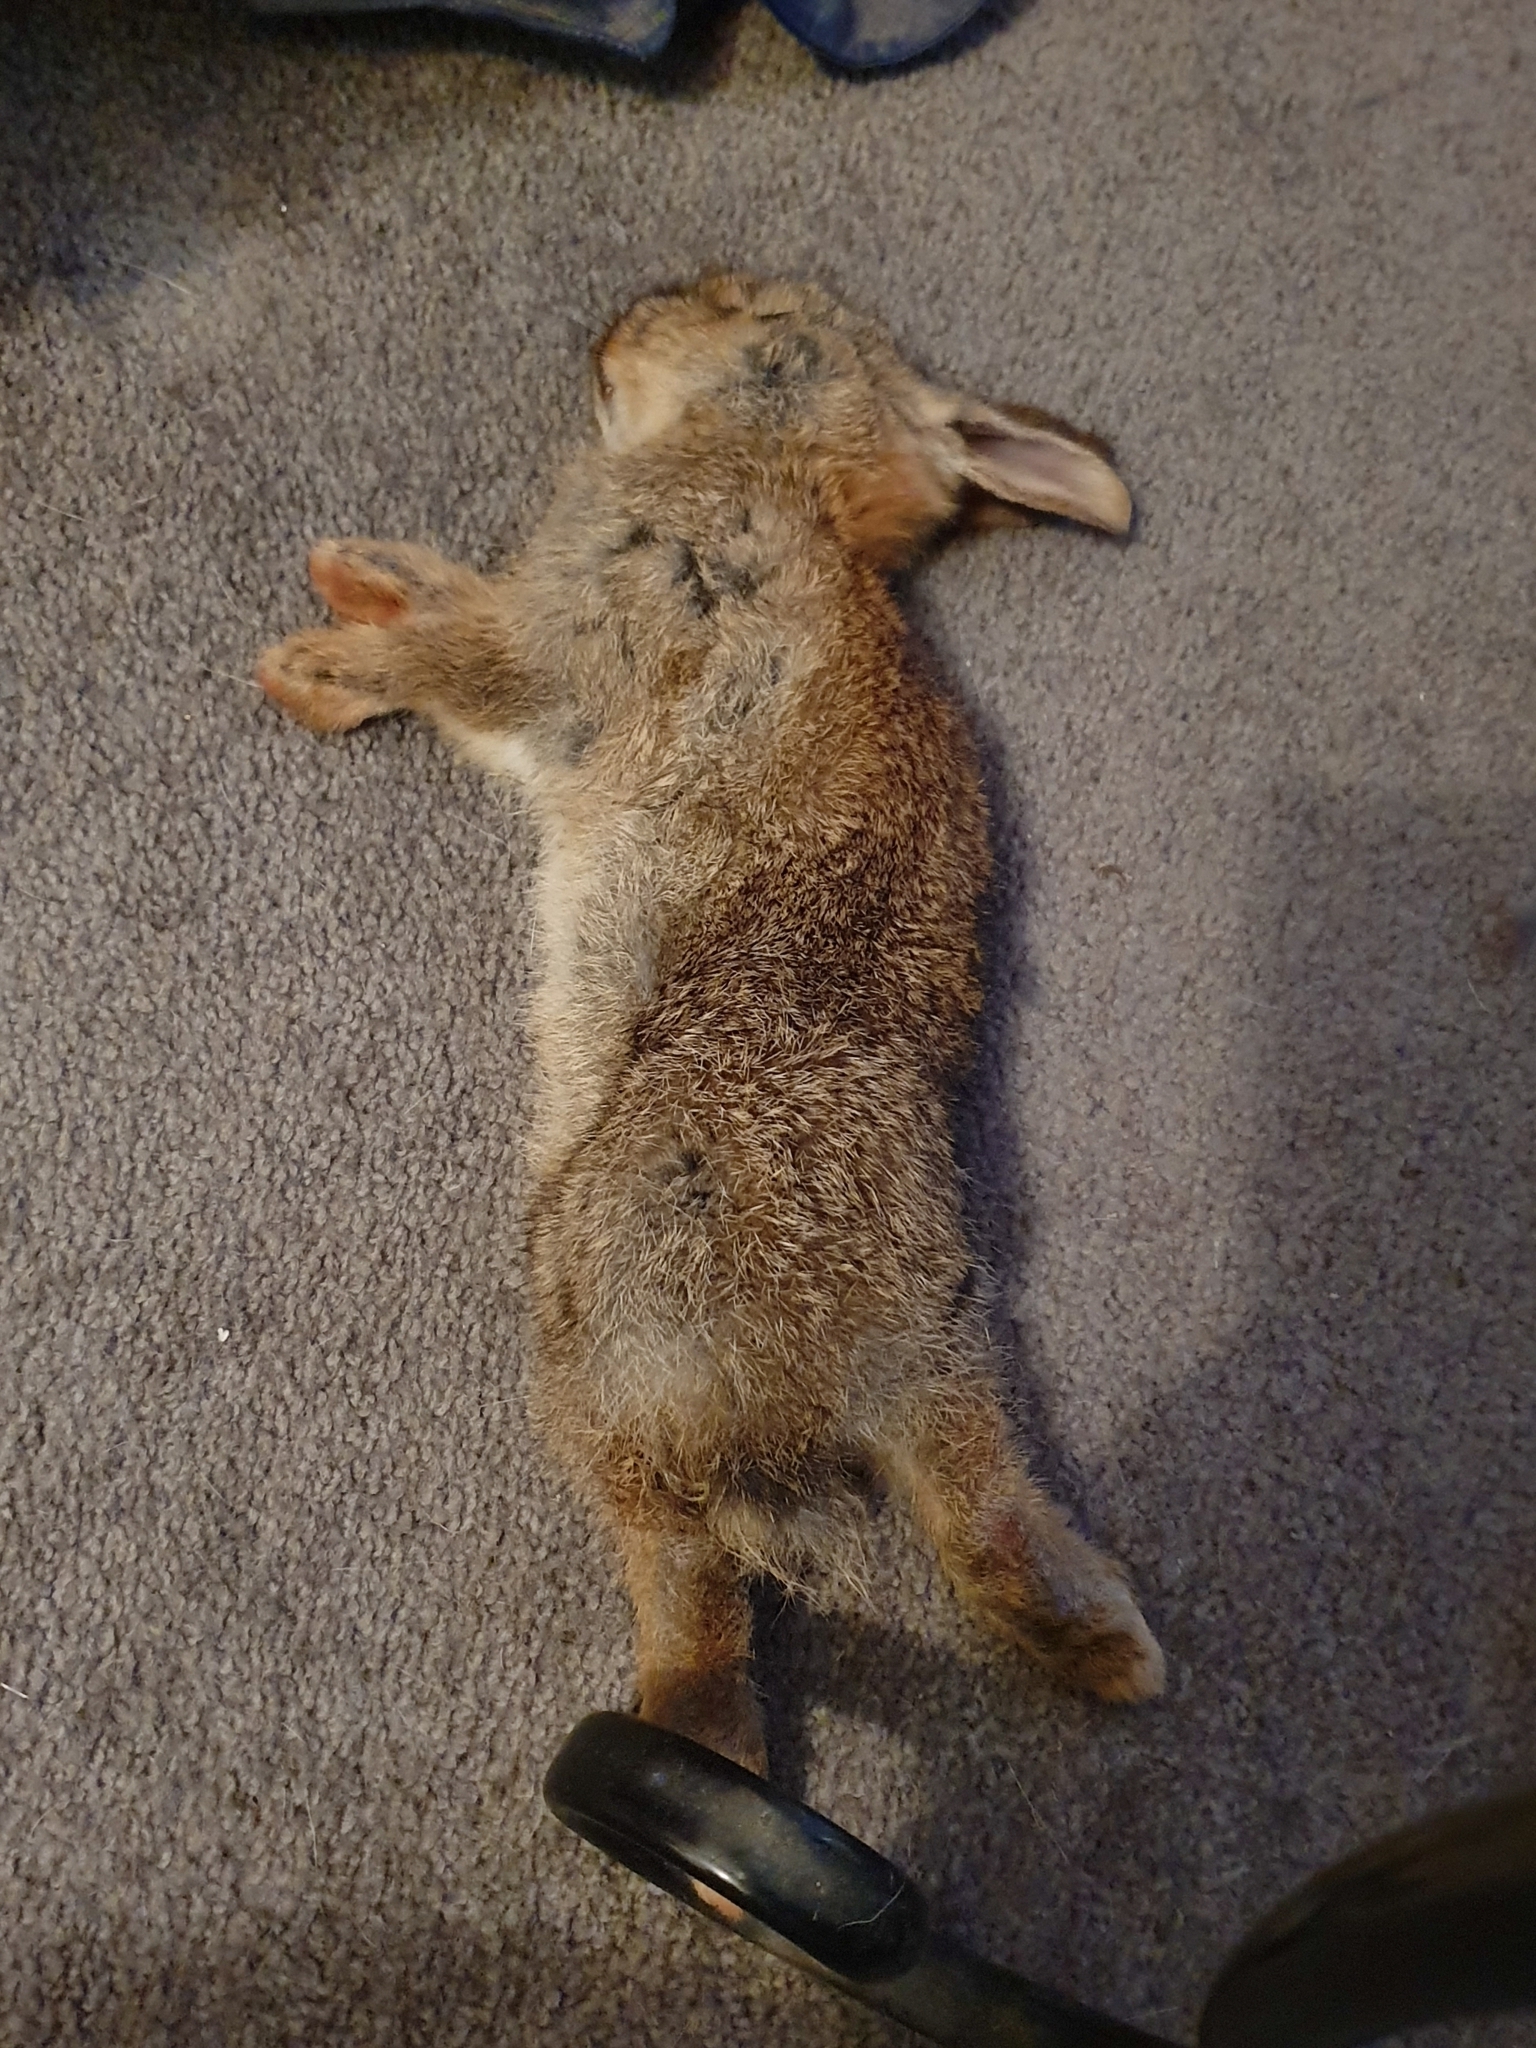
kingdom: Animalia
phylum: Chordata
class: Mammalia
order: Lagomorpha
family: Leporidae
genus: Oryctolagus
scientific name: Oryctolagus cuniculus
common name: European rabbit
